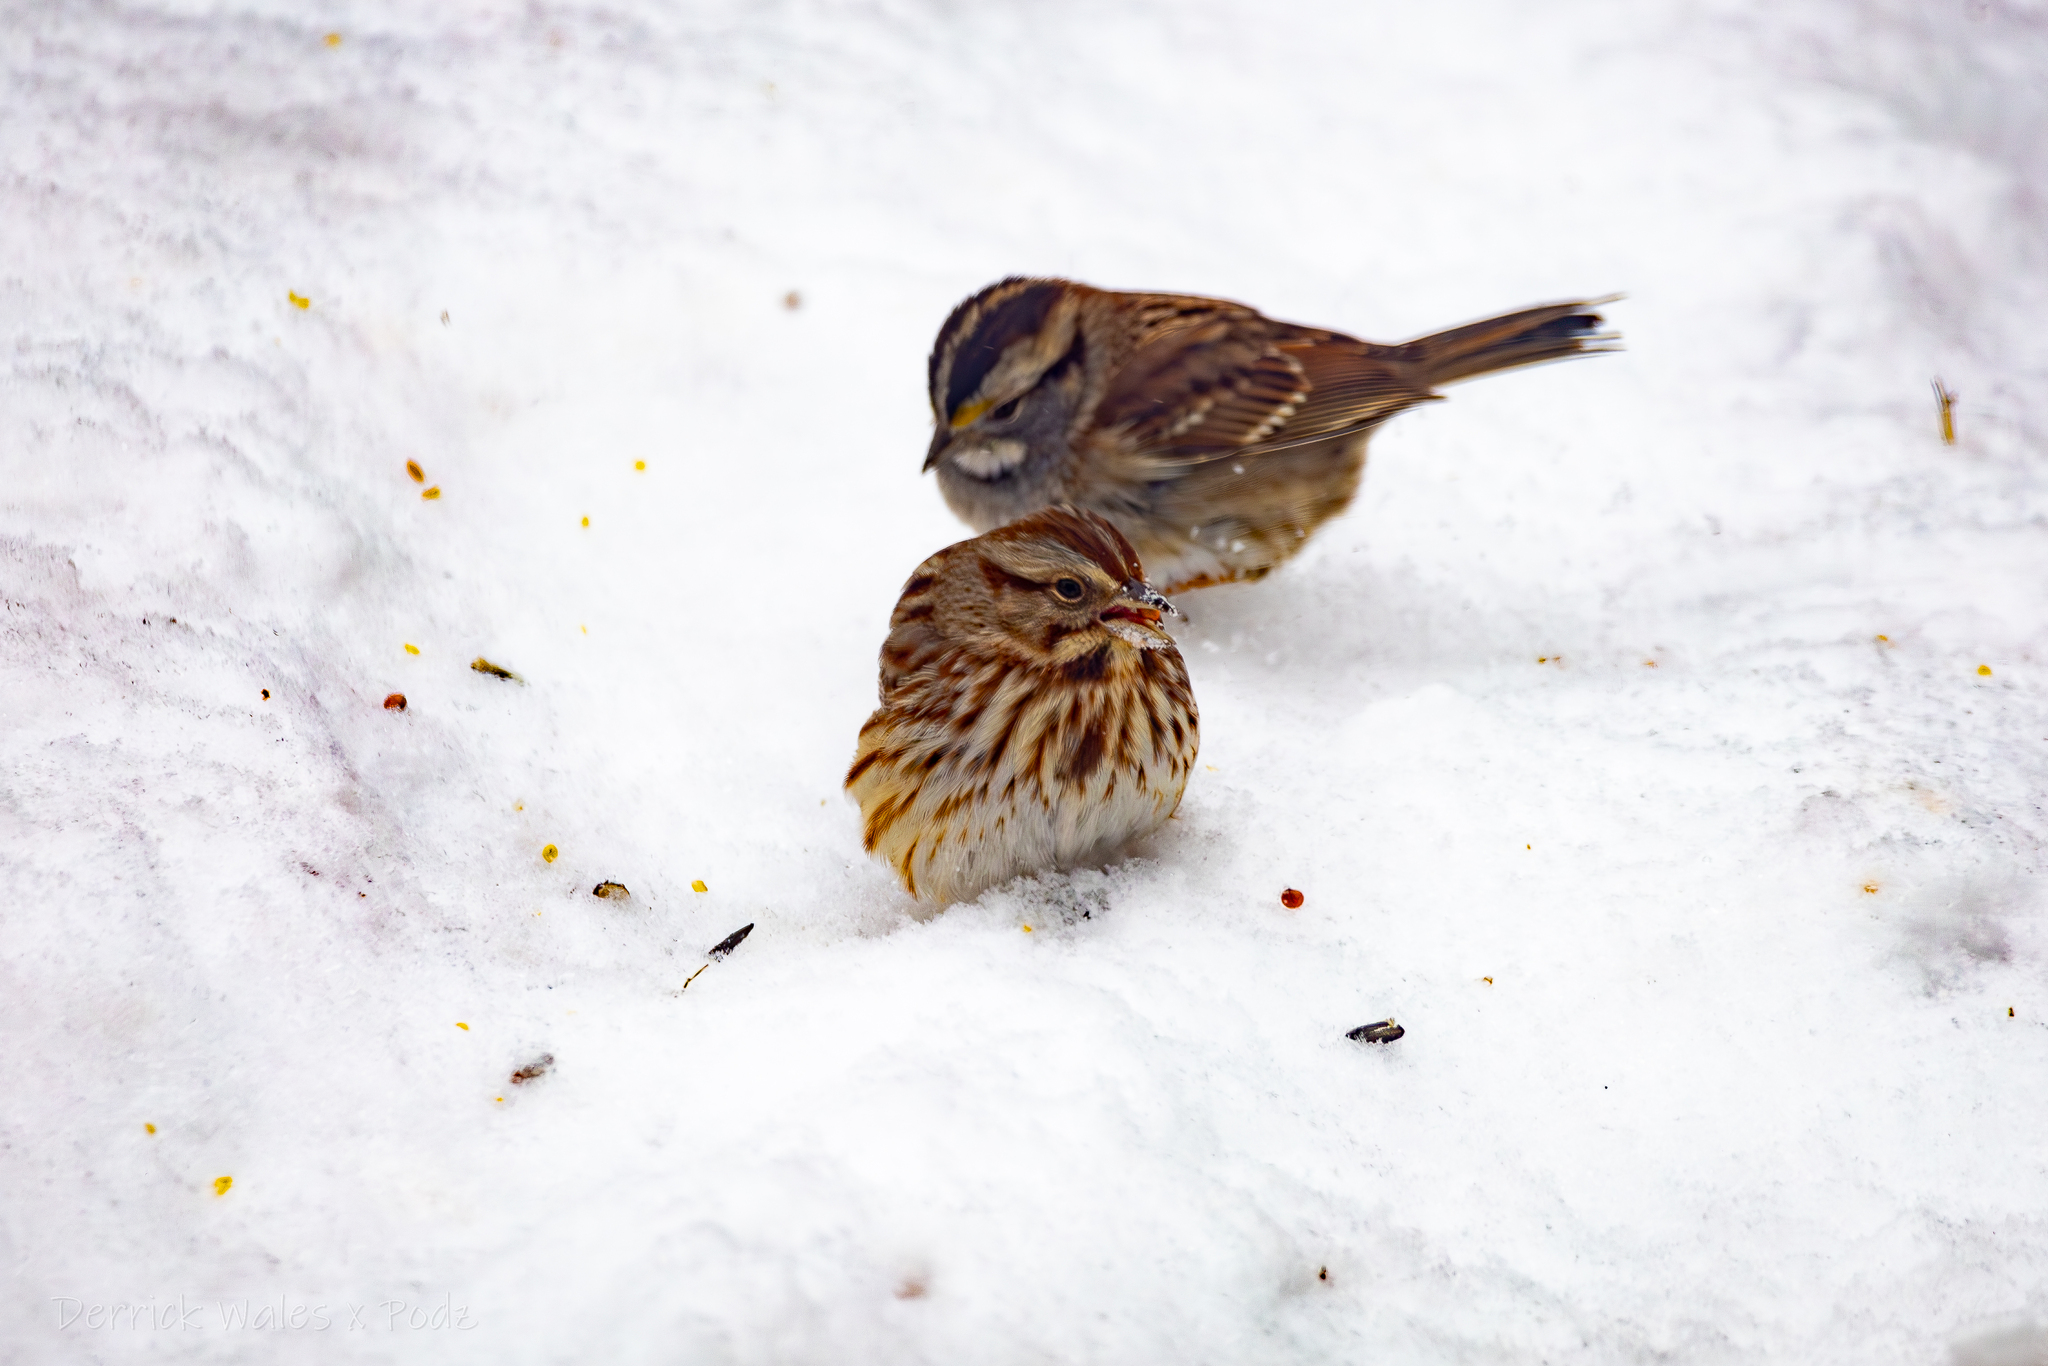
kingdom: Animalia
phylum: Chordata
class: Aves
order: Passeriformes
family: Passerellidae
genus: Zonotrichia
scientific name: Zonotrichia albicollis
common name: White-throated sparrow
